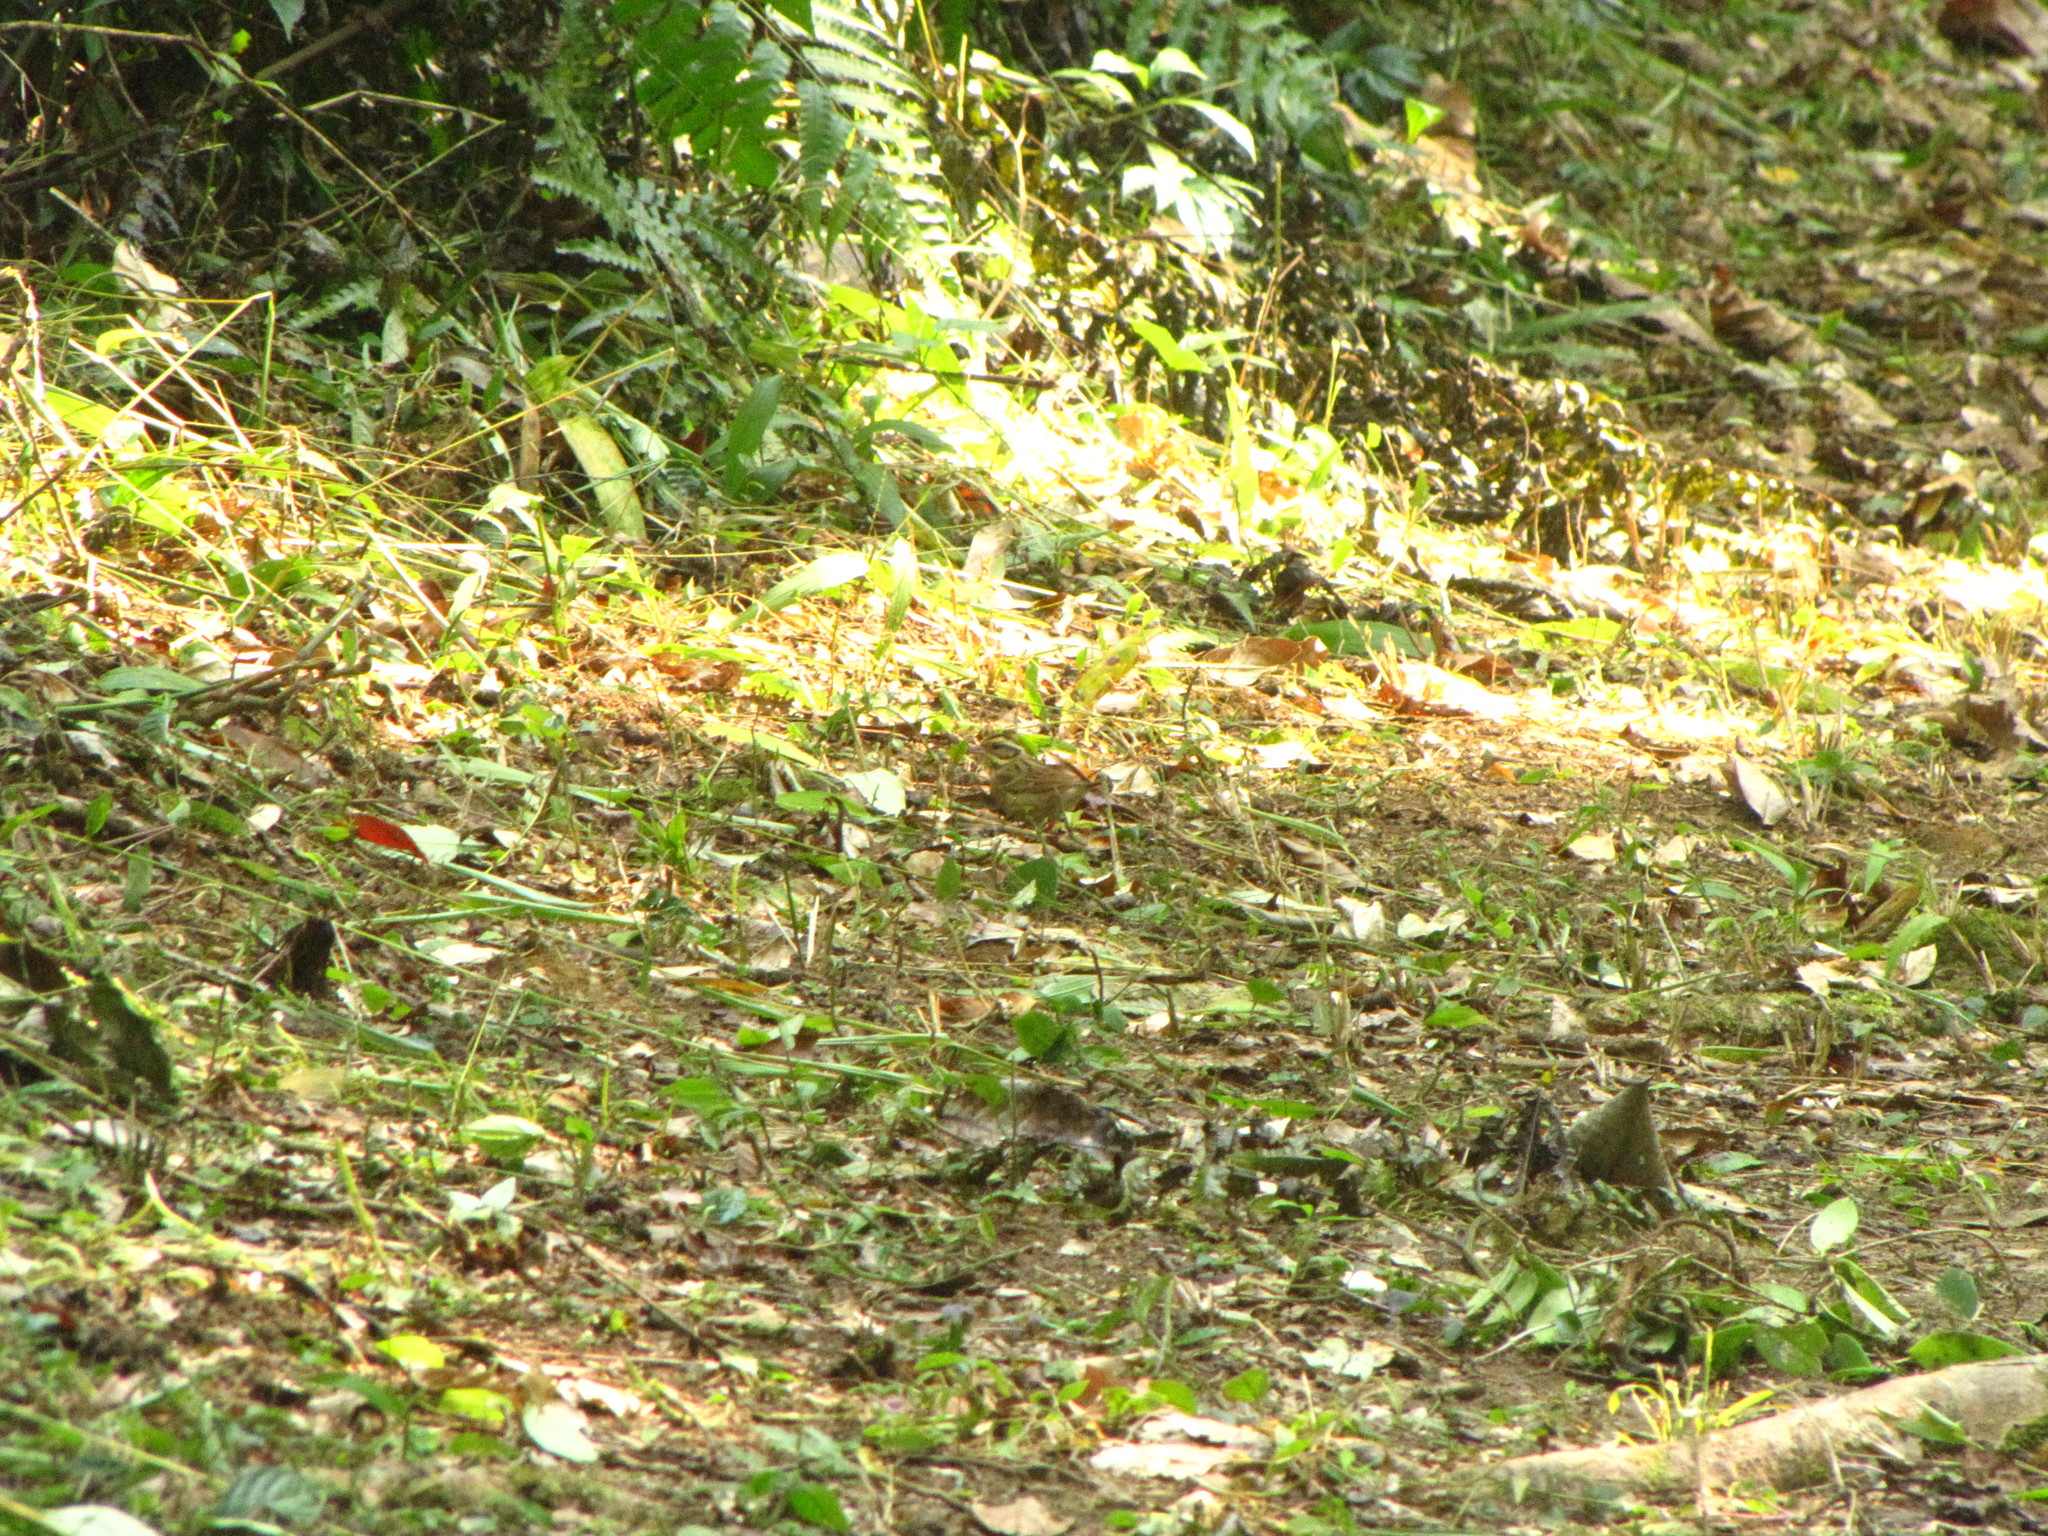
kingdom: Animalia
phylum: Chordata
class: Aves
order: Passeriformes
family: Emberizidae
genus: Emberiza
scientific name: Emberiza tristrami
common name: Tristram's bunting
